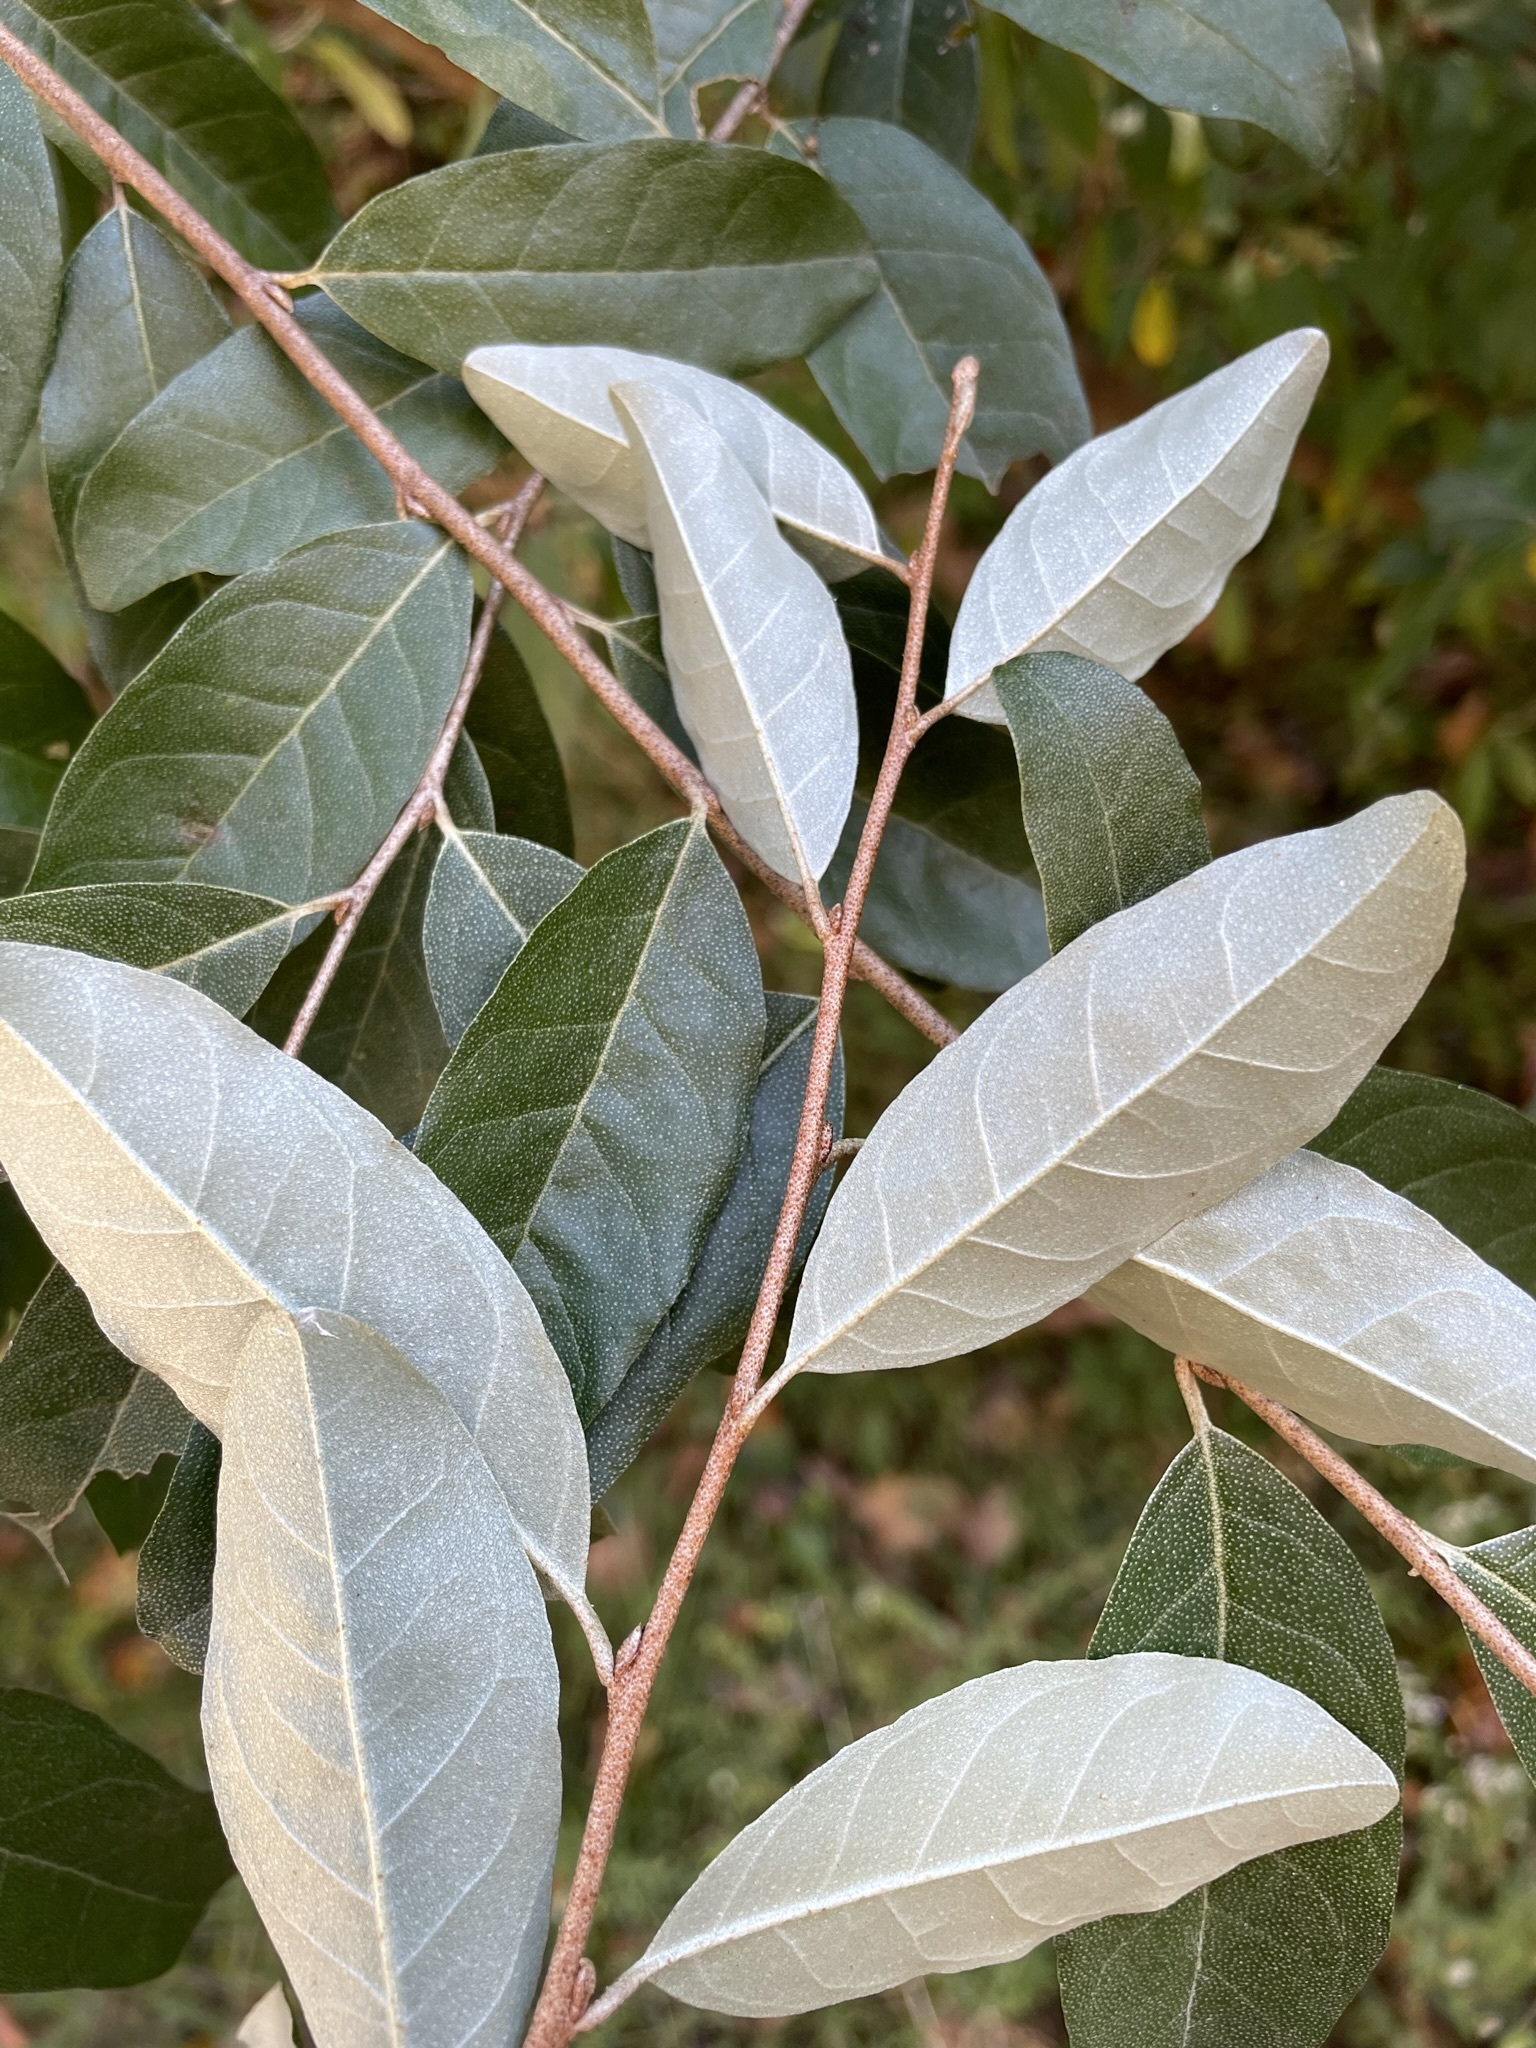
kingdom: Plantae
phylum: Tracheophyta
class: Magnoliopsida
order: Rosales
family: Elaeagnaceae
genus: Elaeagnus
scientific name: Elaeagnus umbellata
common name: Autumn olive
